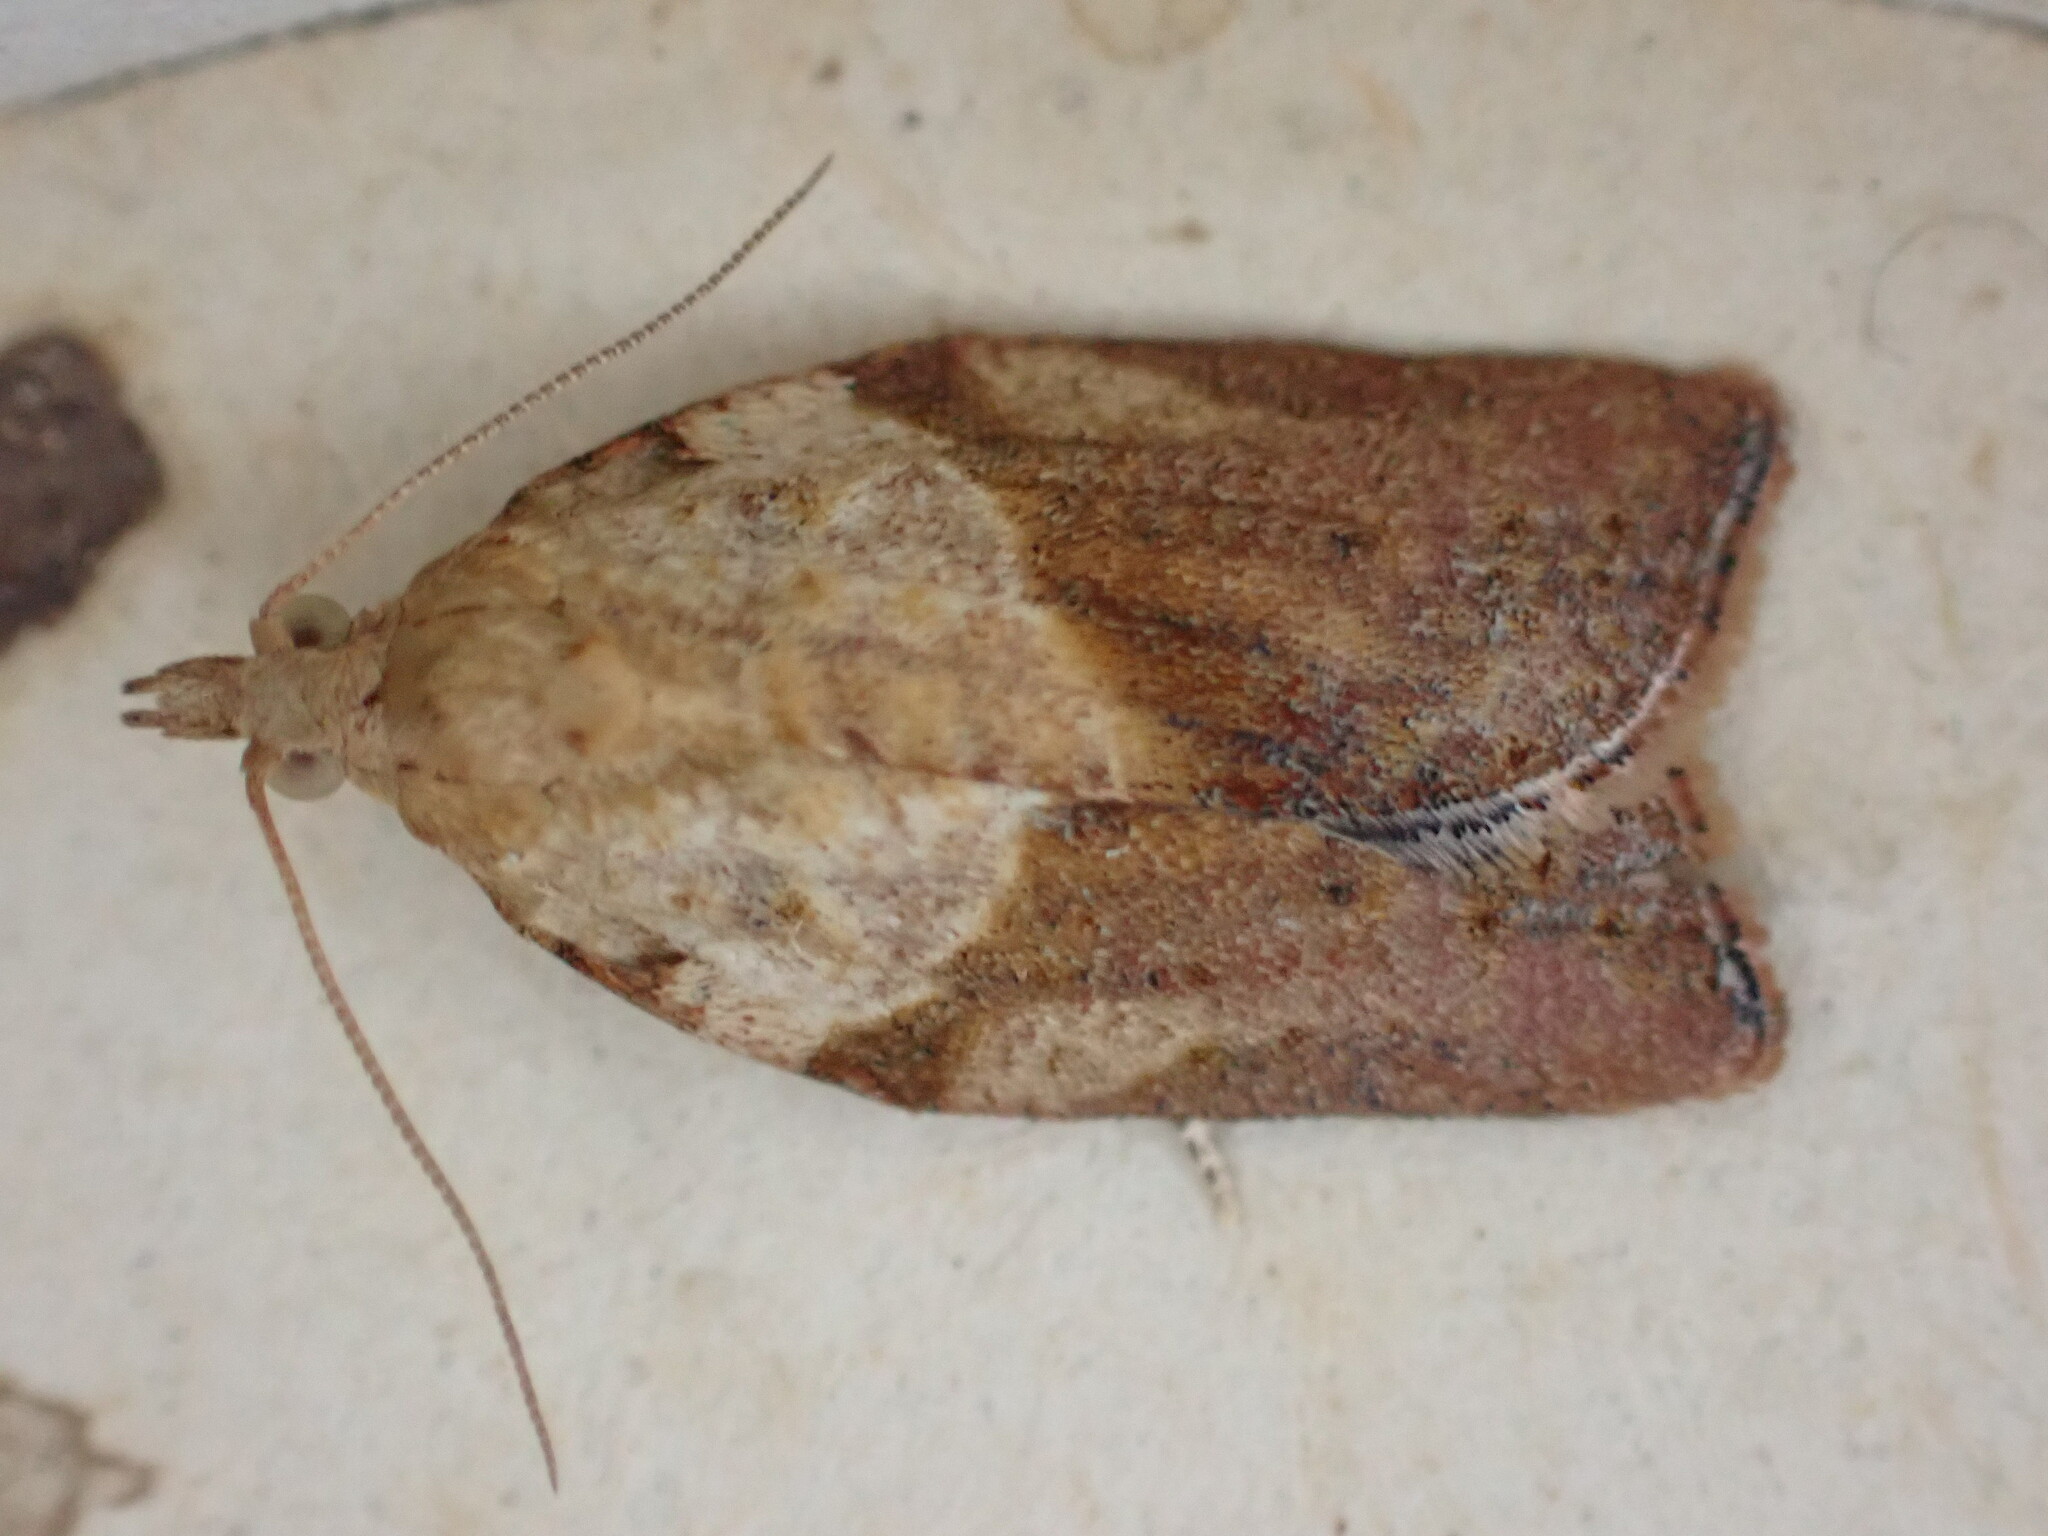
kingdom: Animalia
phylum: Arthropoda
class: Insecta
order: Lepidoptera
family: Tortricidae
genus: Epiphyas
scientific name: Epiphyas postvittana
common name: Light brown apple moth
